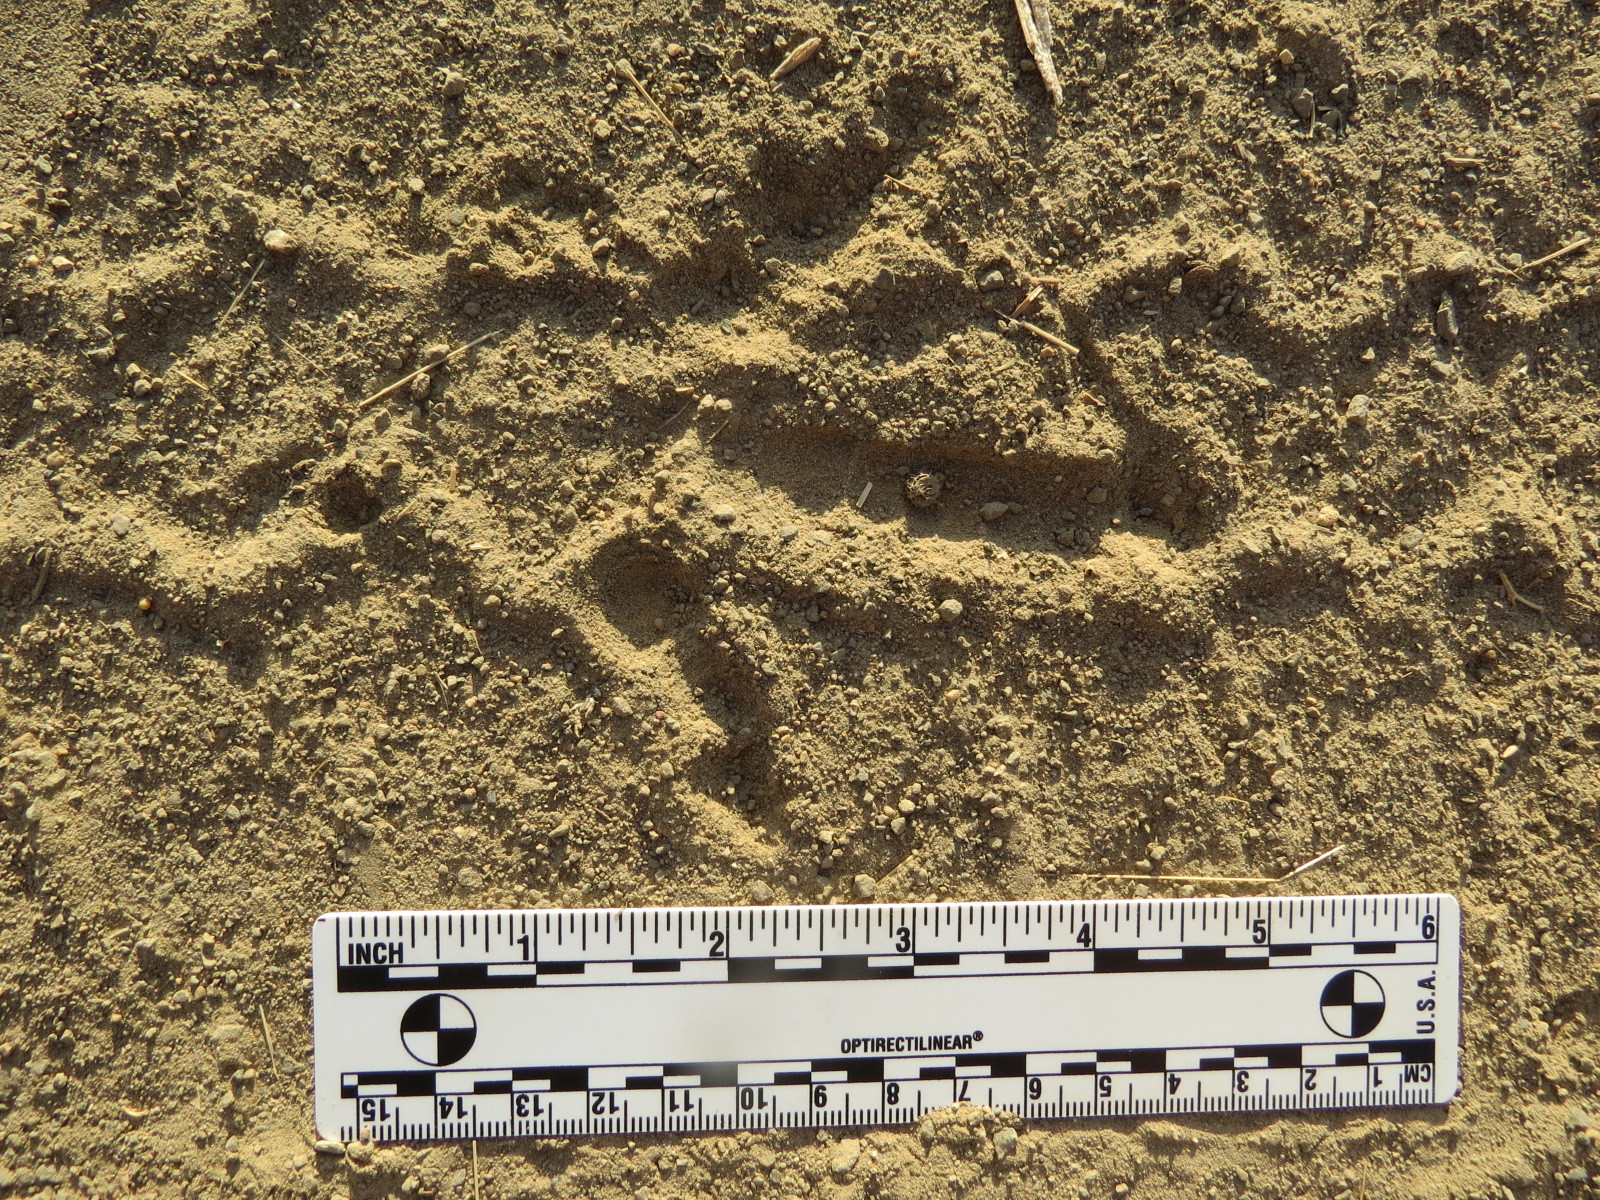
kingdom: Animalia
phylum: Chordata
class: Aves
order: Galliformes
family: Phasianidae
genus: Meleagris
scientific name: Meleagris gallopavo
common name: Wild turkey
